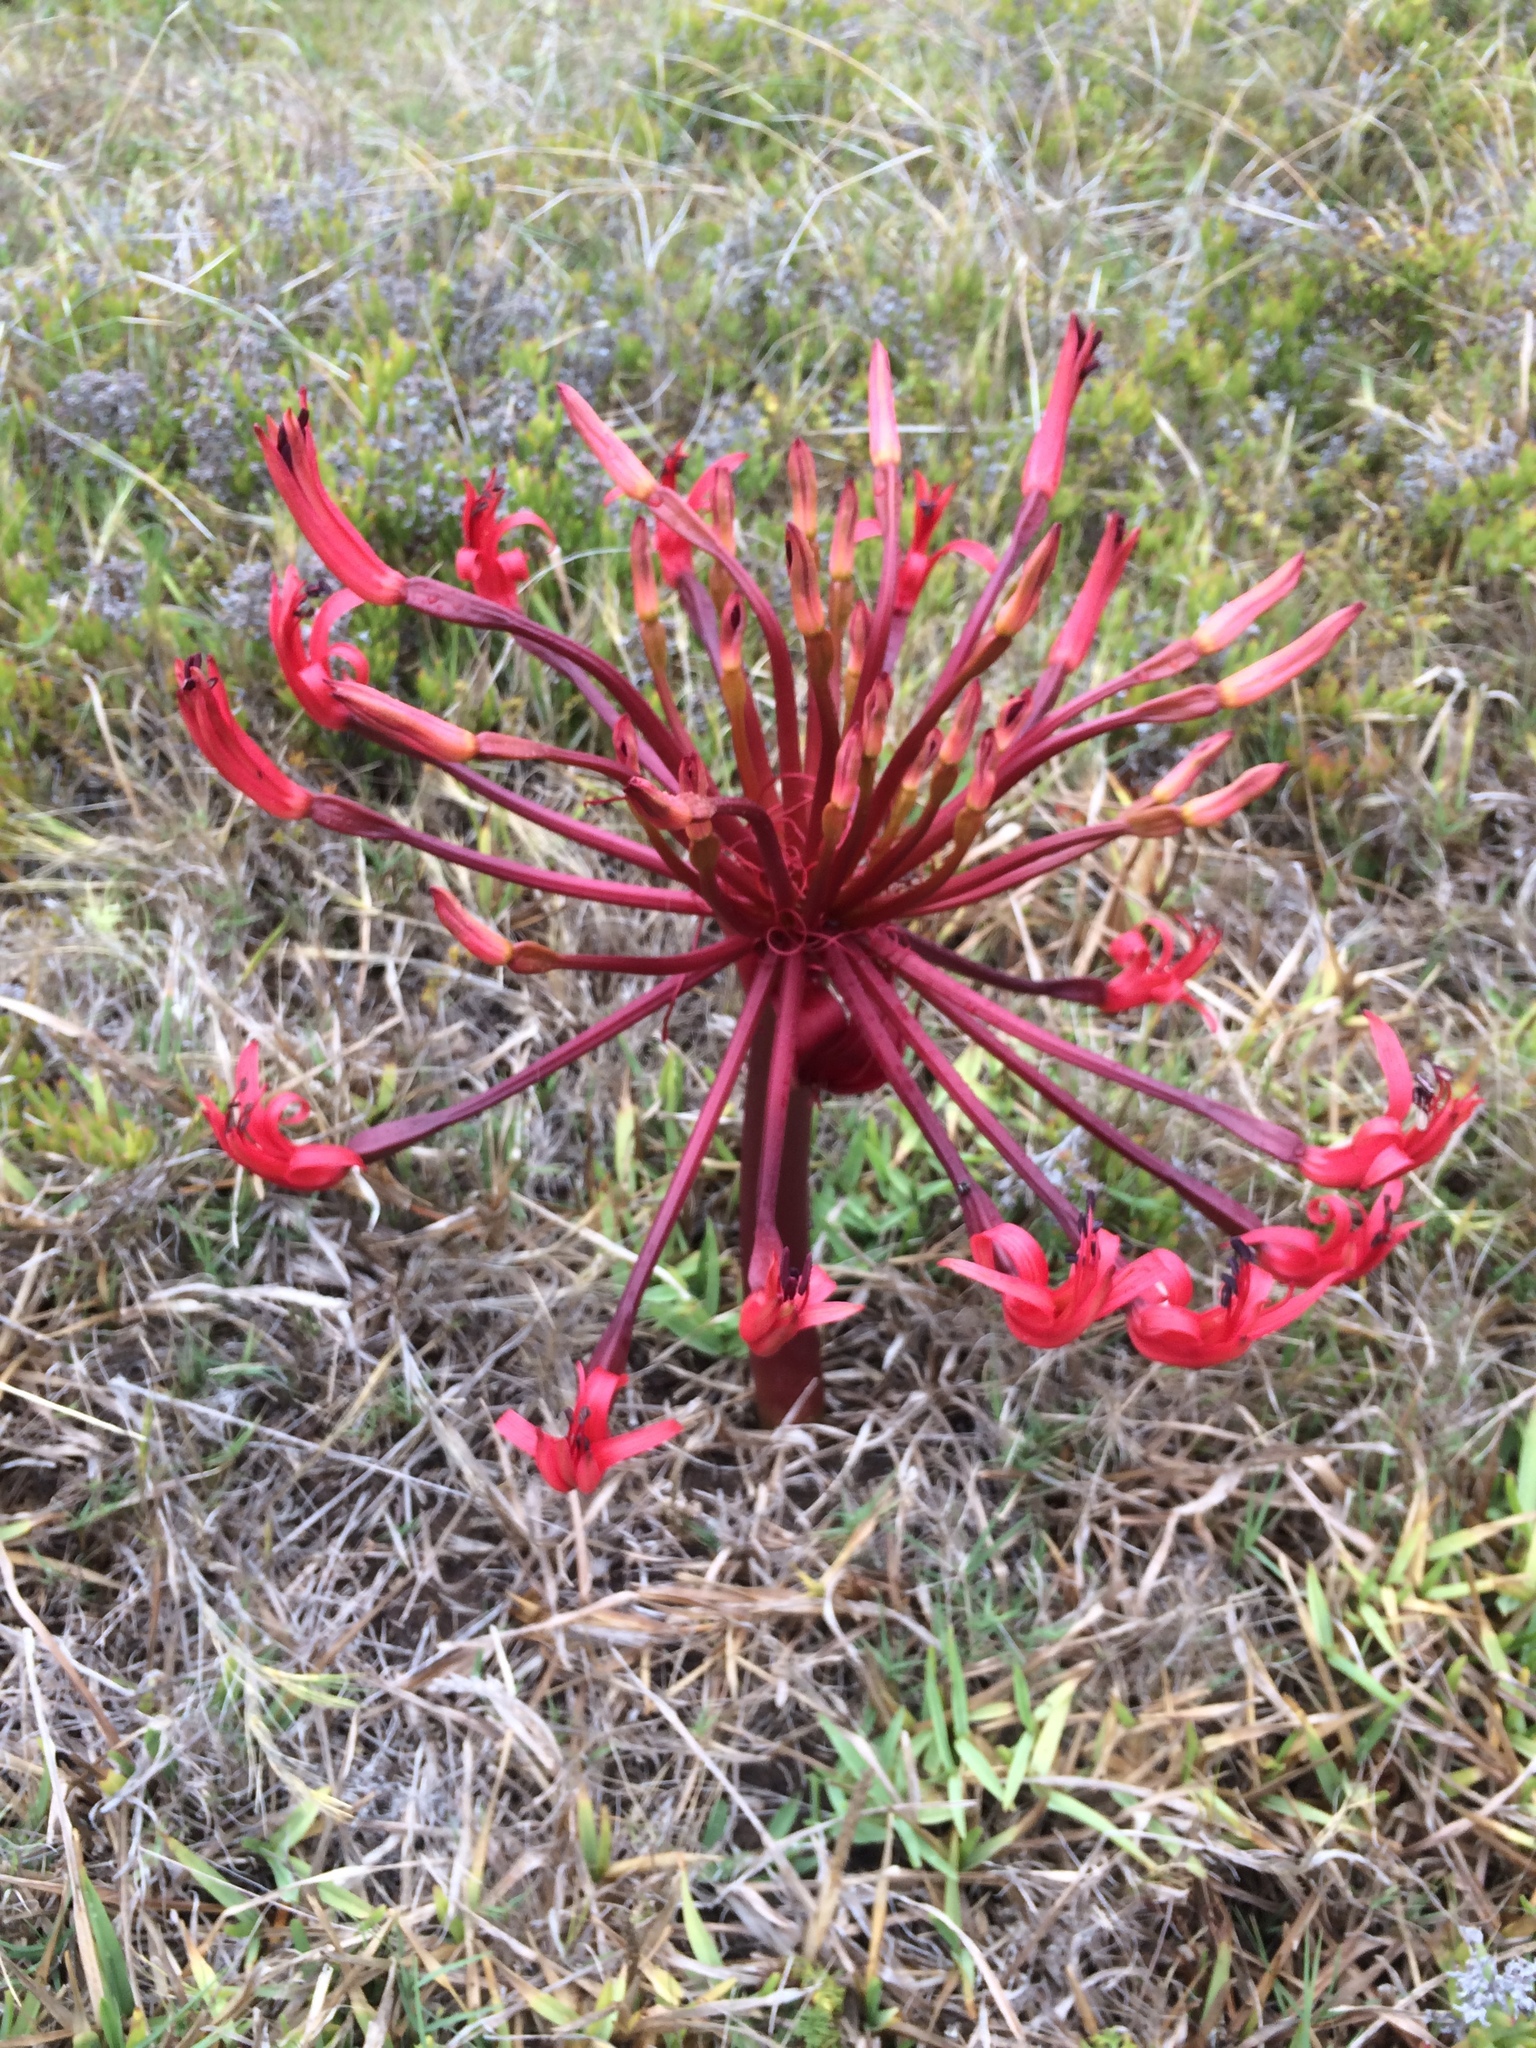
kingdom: Plantae
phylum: Tracheophyta
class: Liliopsida
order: Asparagales
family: Amaryllidaceae
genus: Brunsvigia
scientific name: Brunsvigia orientalis
